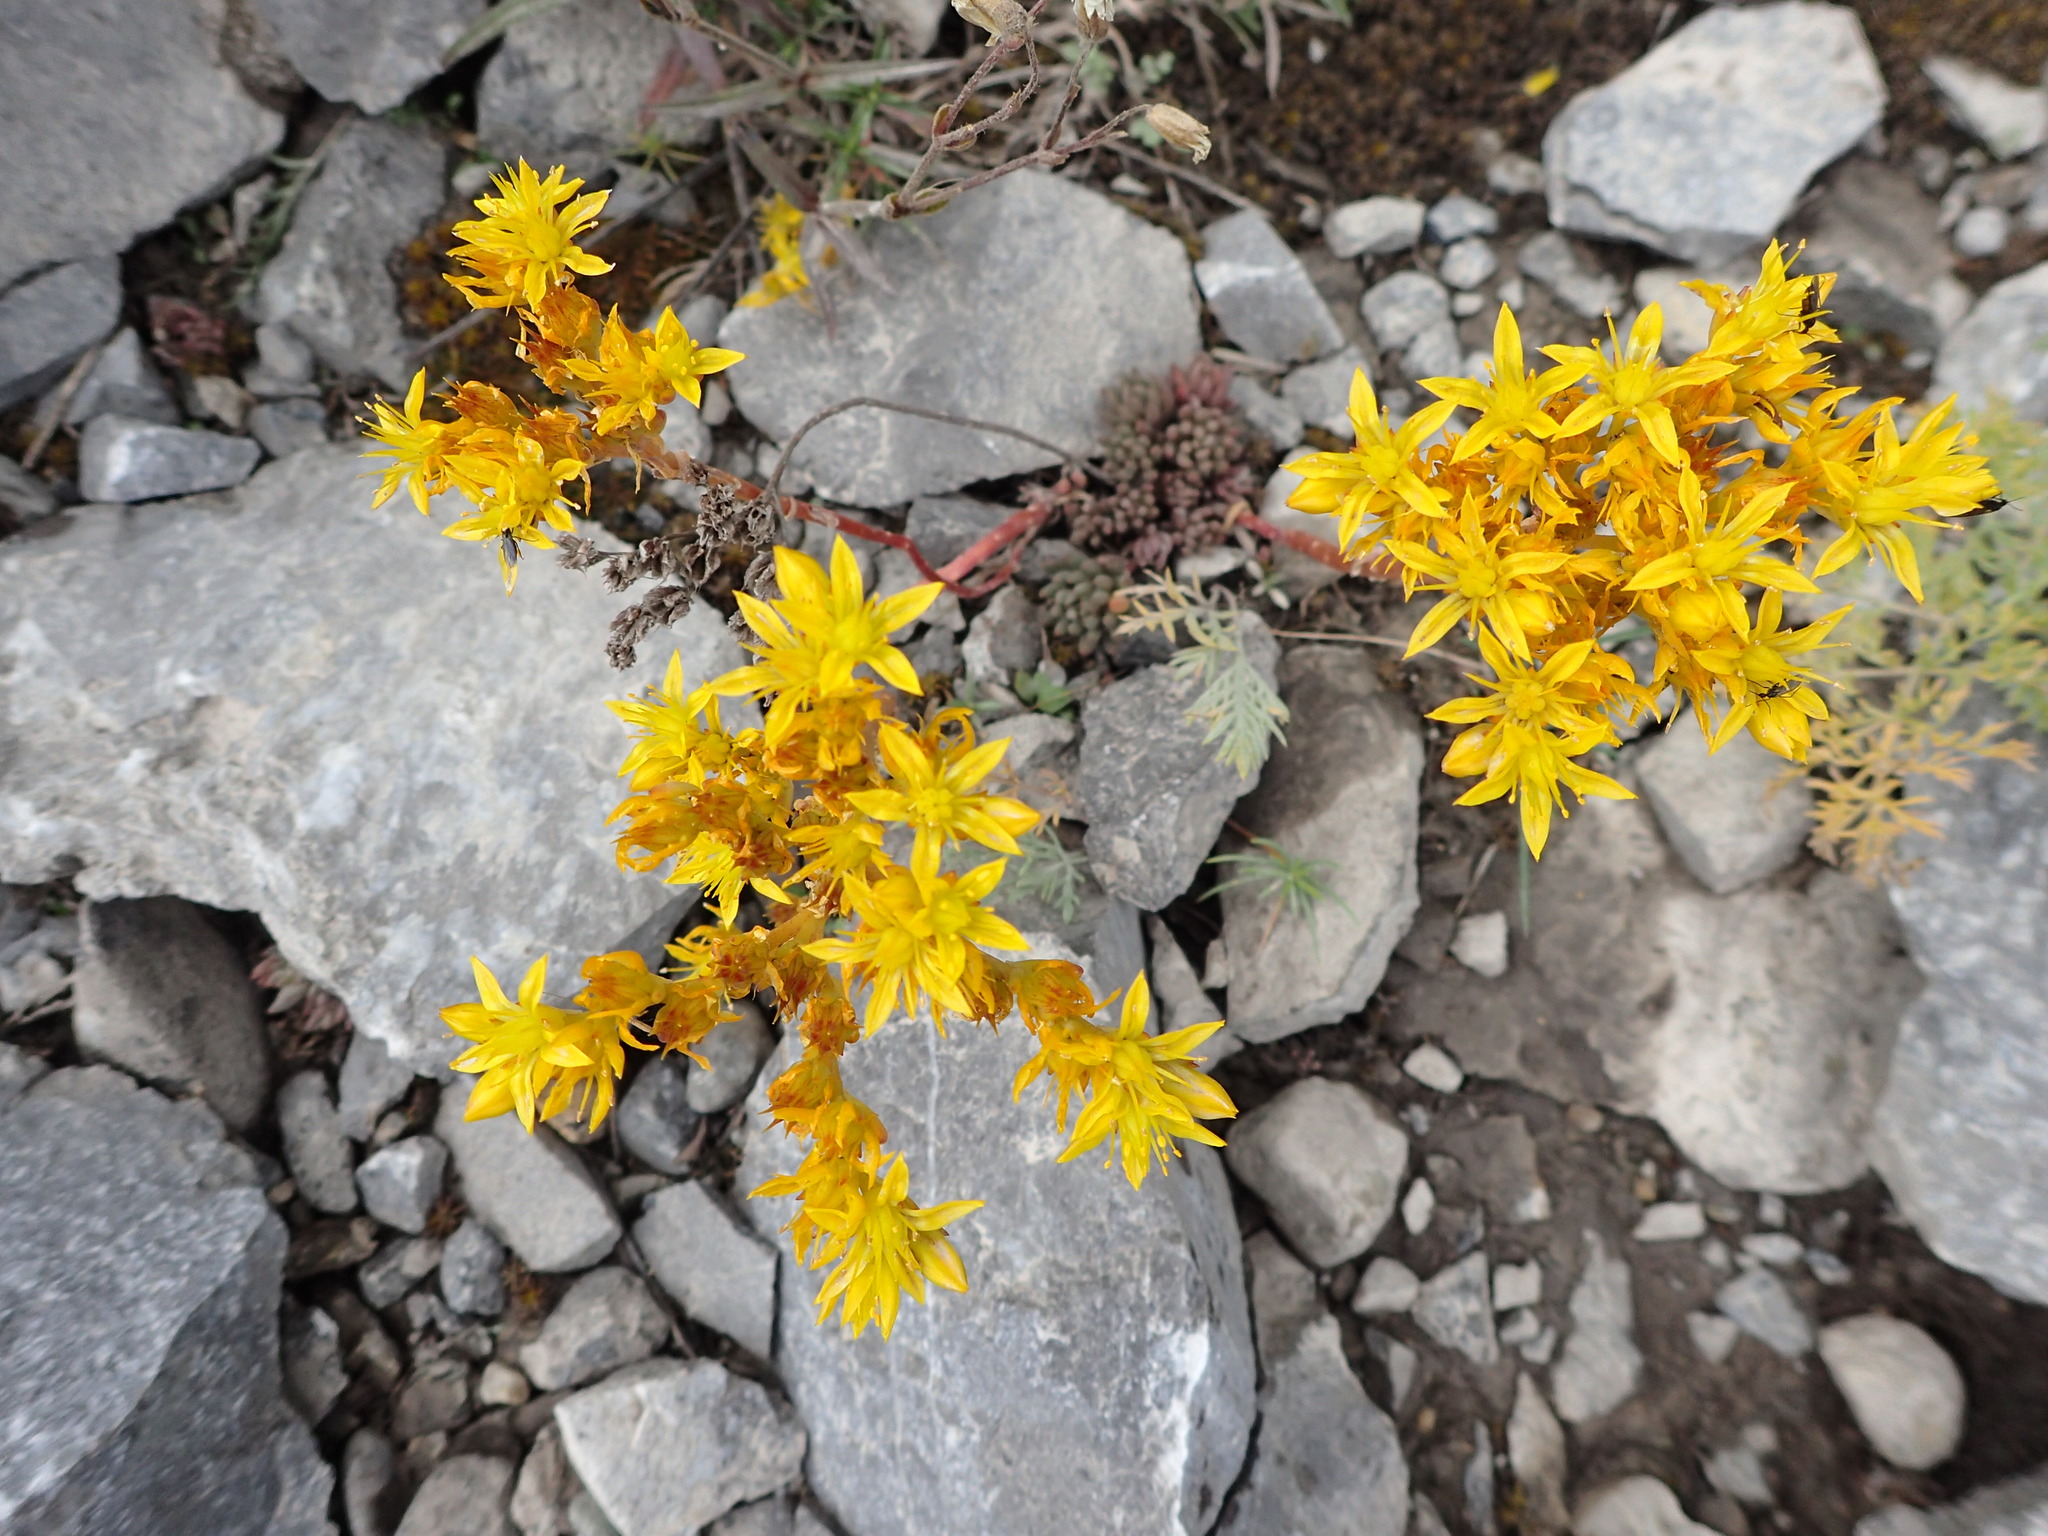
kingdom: Plantae
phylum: Tracheophyta
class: Magnoliopsida
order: Saxifragales
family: Crassulaceae
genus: Sedum
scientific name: Sedum lanceolatum
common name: Common stonecrop
